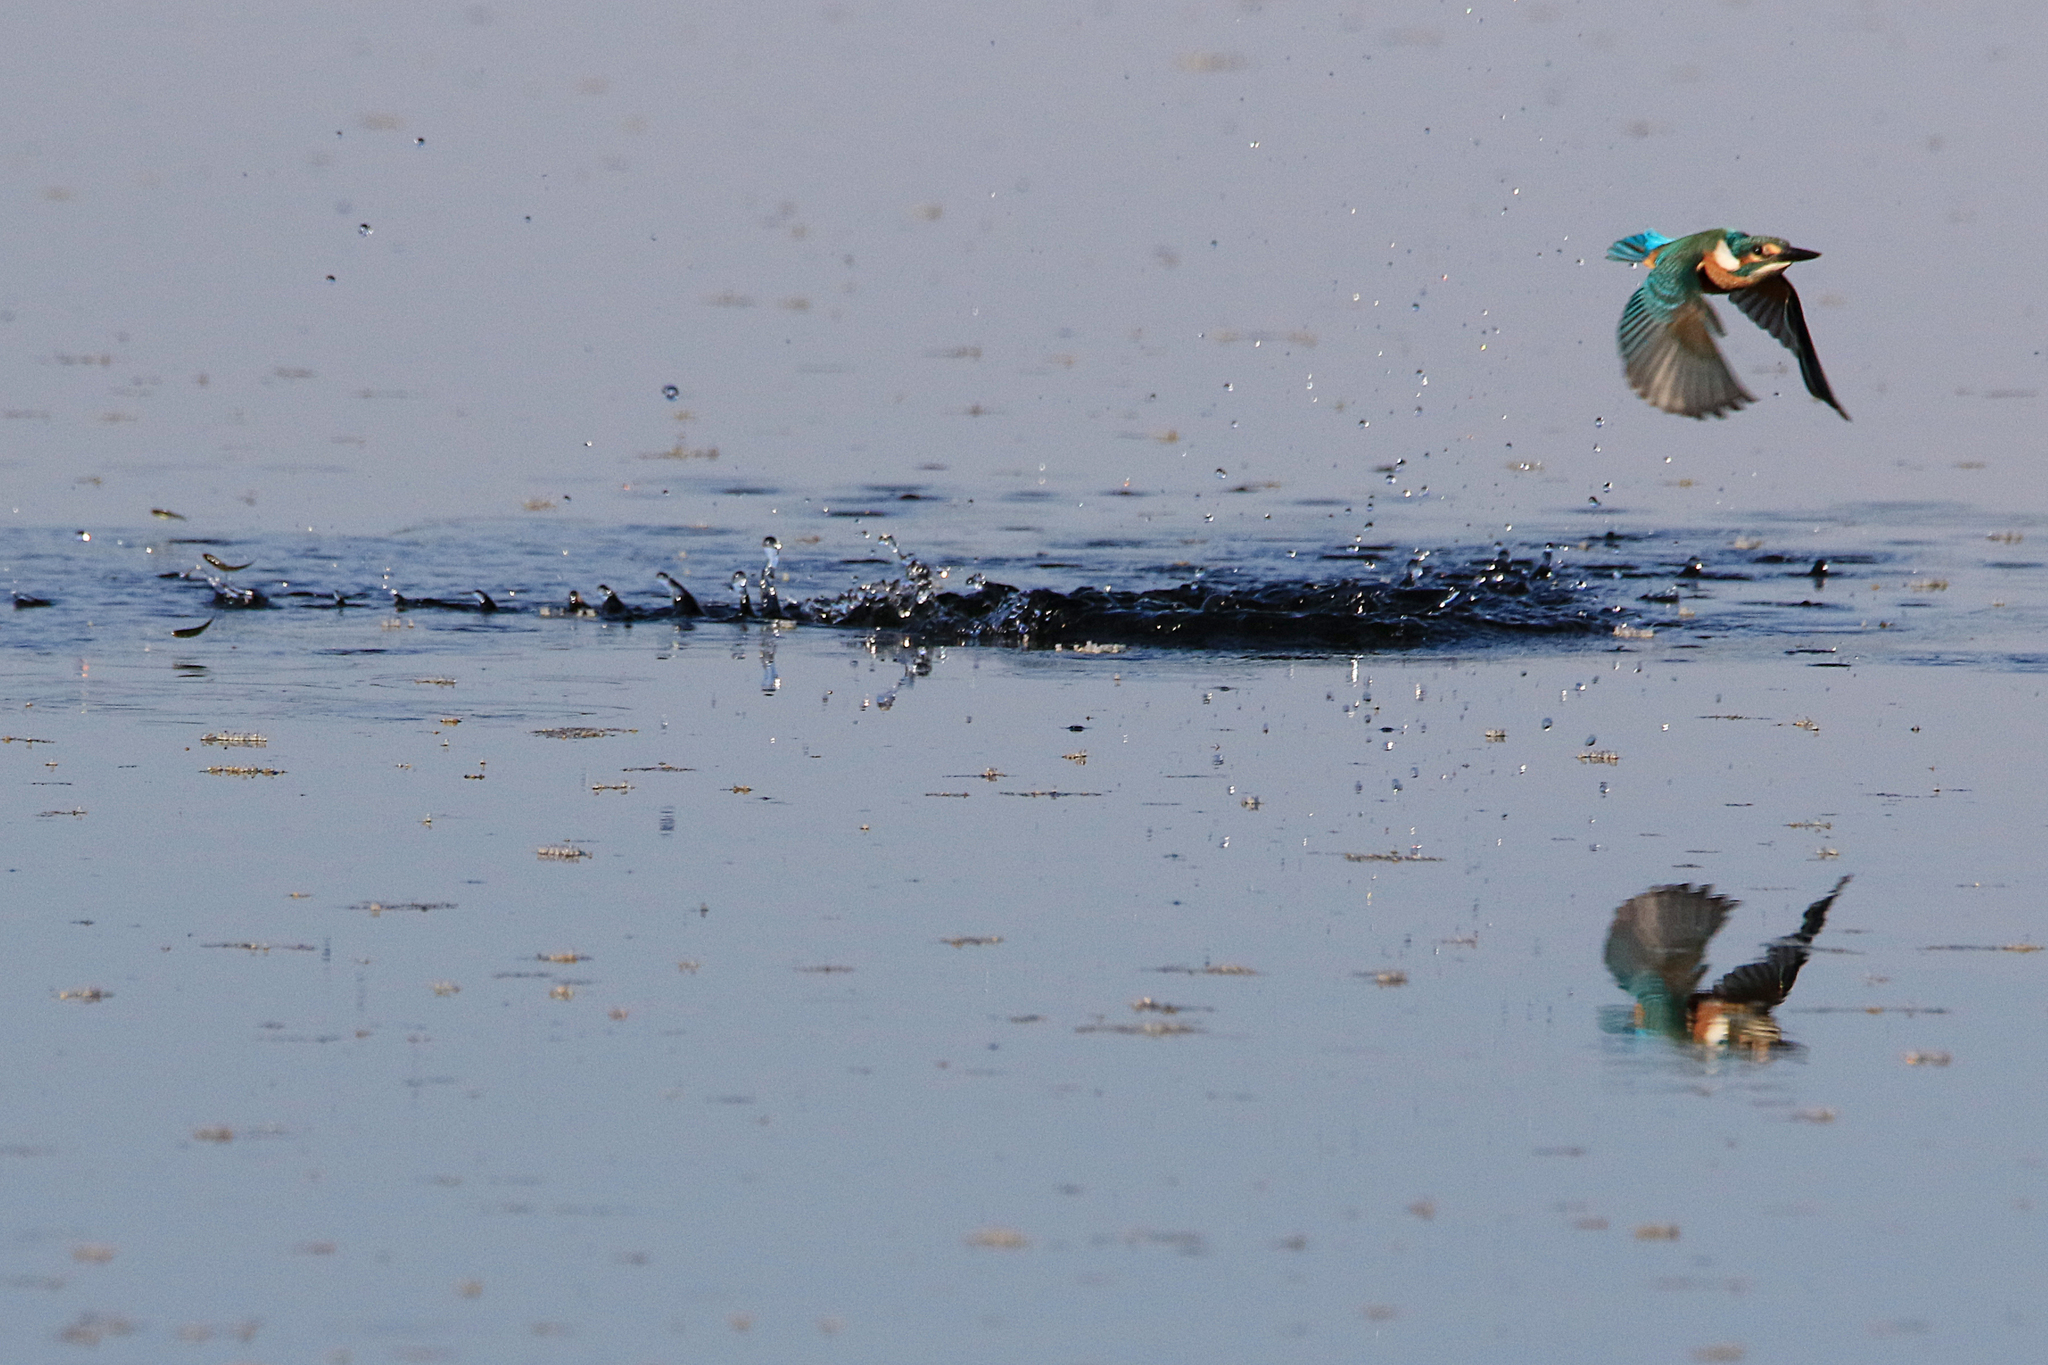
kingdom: Animalia
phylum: Chordata
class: Aves
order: Coraciiformes
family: Alcedinidae
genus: Alcedo
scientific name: Alcedo atthis
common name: Common kingfisher
